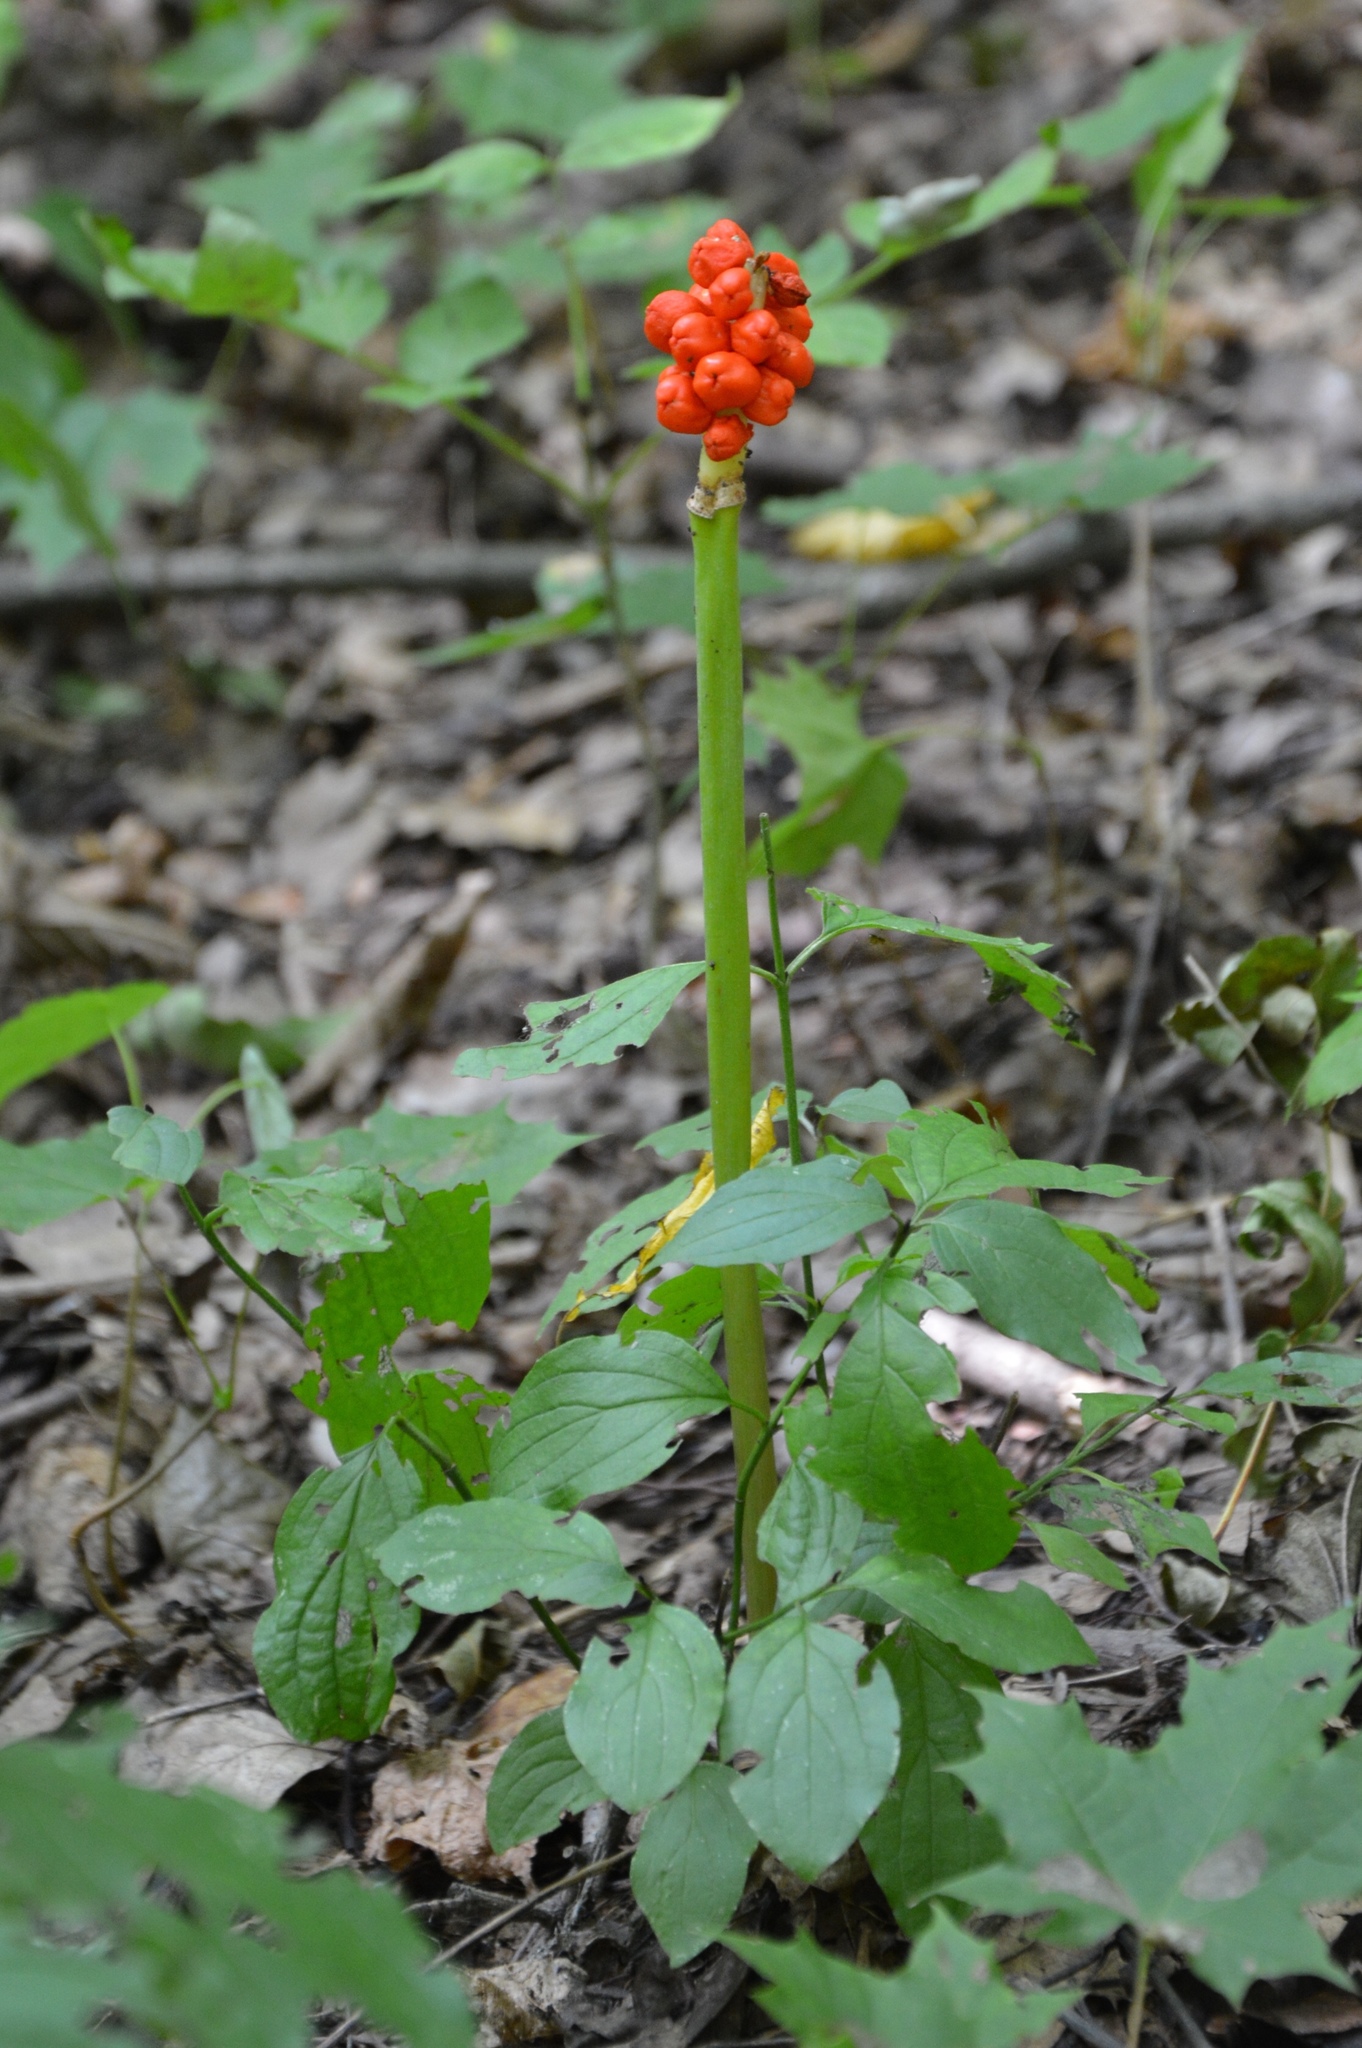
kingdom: Plantae
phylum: Tracheophyta
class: Liliopsida
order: Alismatales
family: Araceae
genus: Arum
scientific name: Arum cylindraceum
